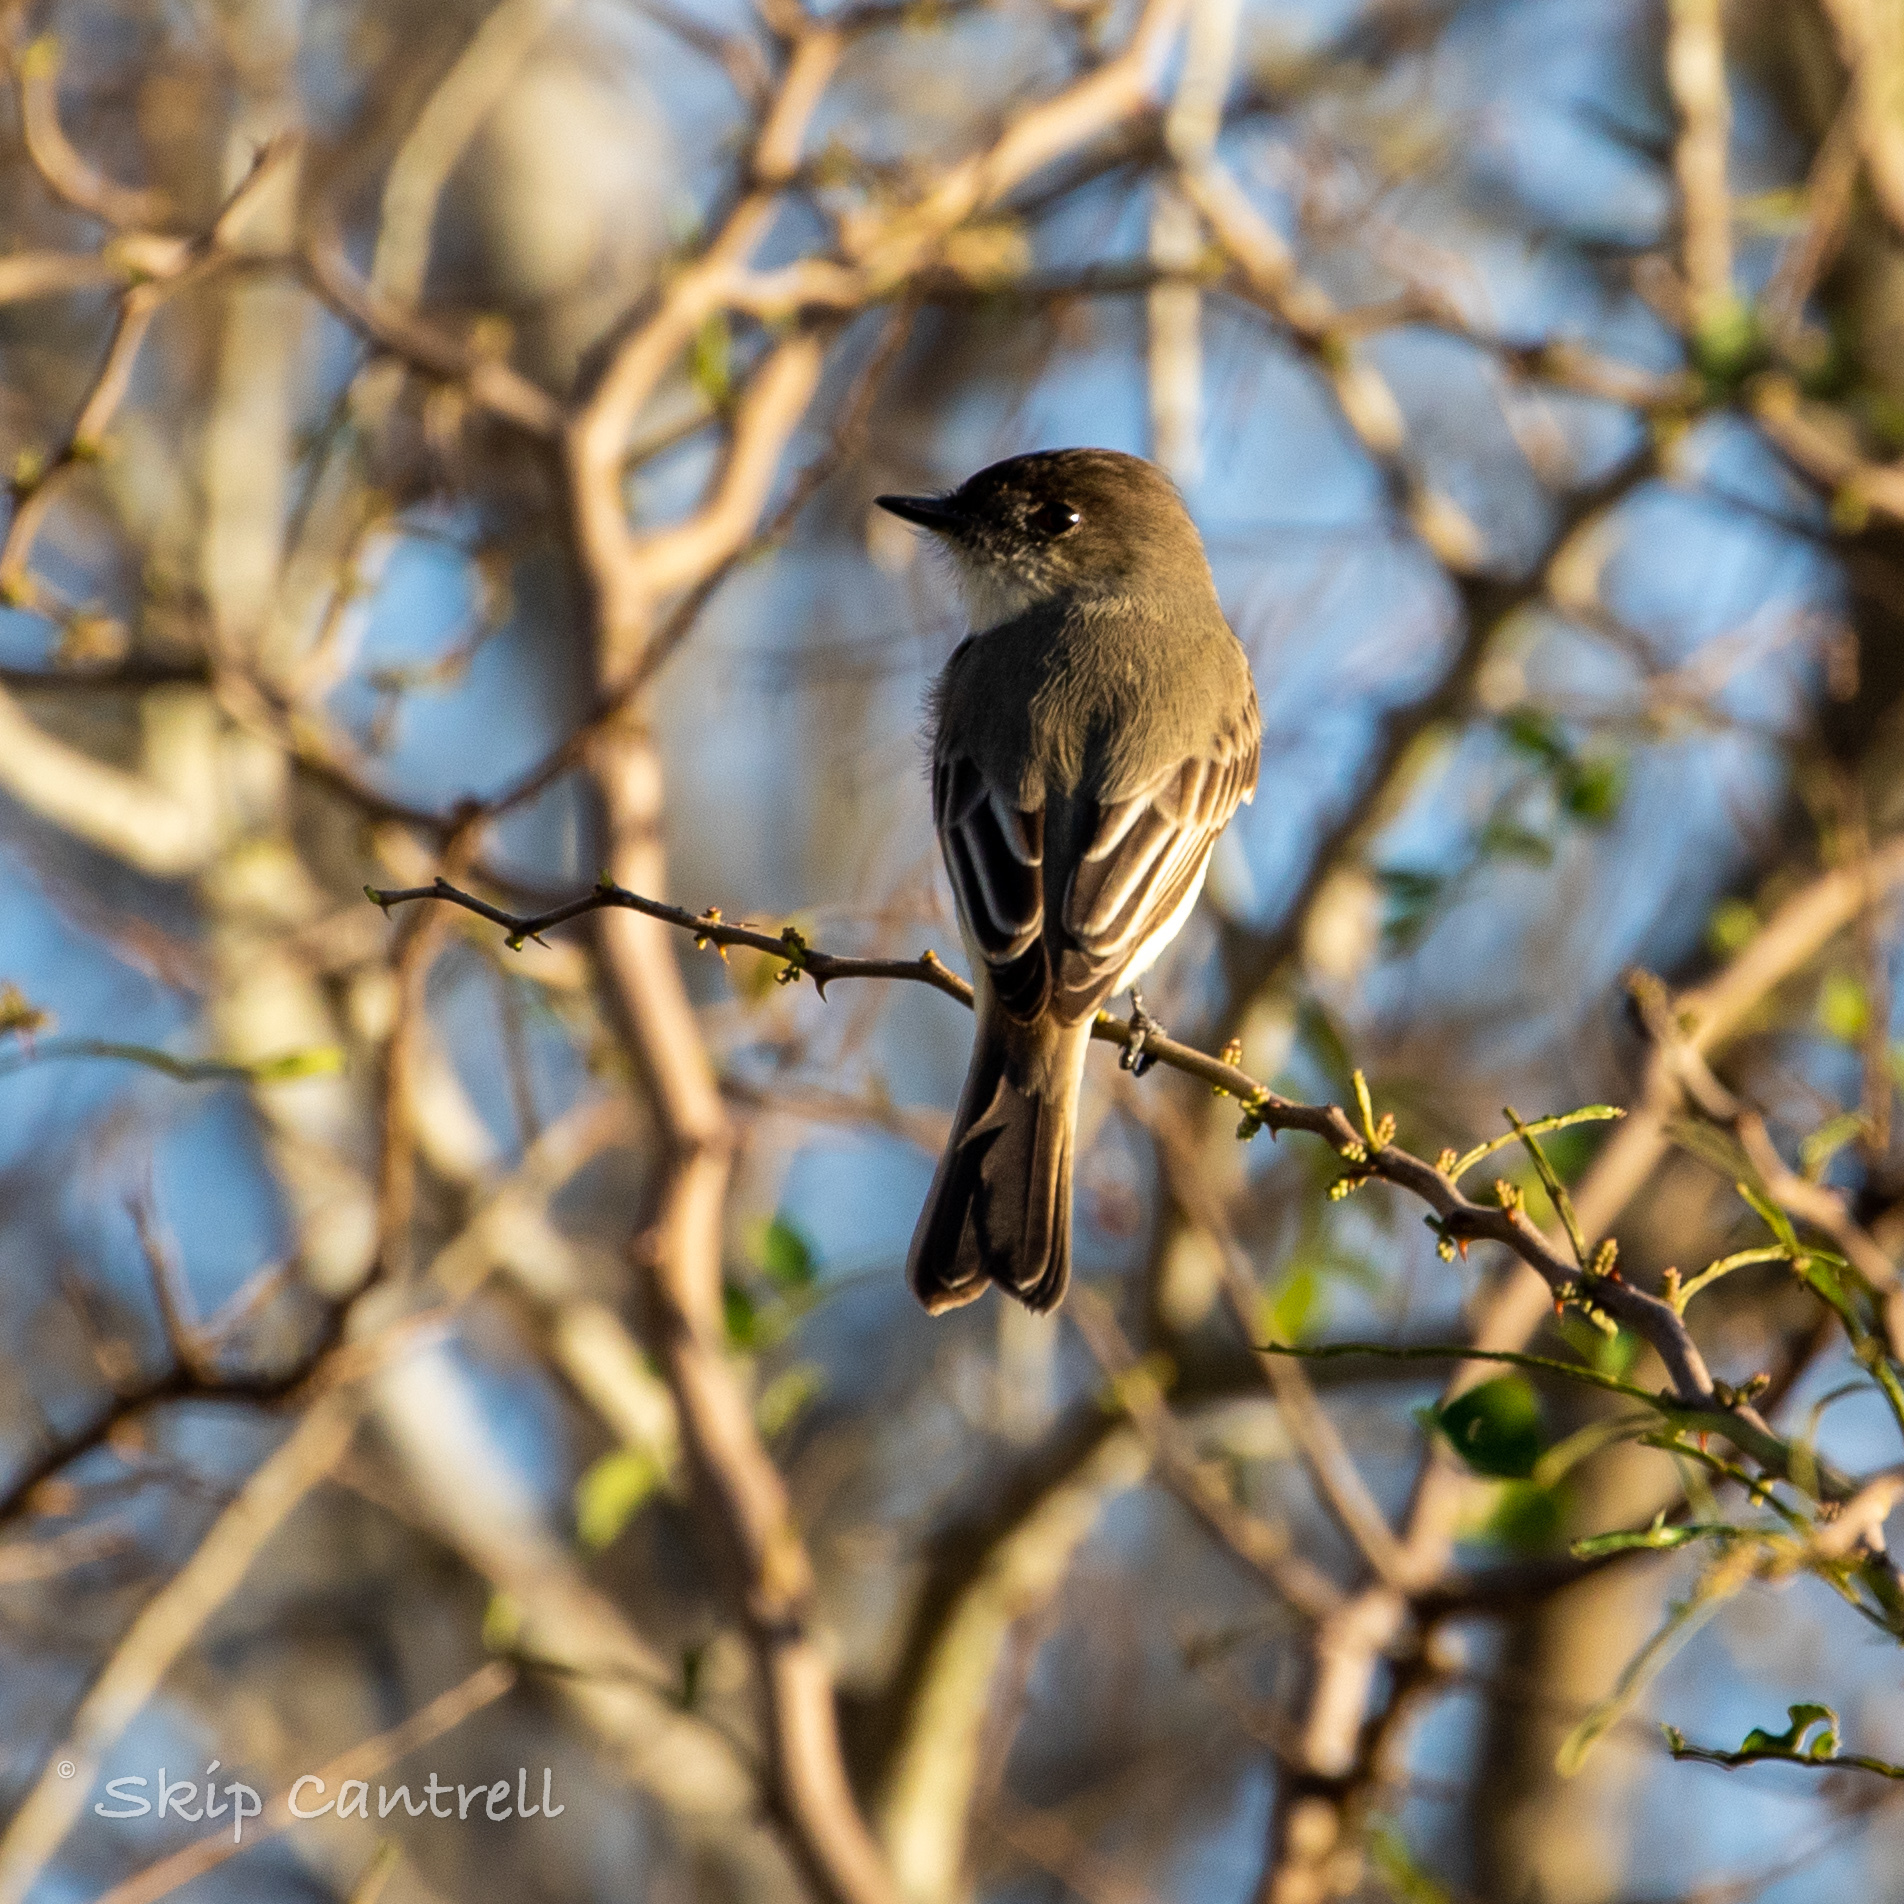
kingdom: Animalia
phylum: Chordata
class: Aves
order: Passeriformes
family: Tyrannidae
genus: Sayornis
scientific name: Sayornis phoebe
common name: Eastern phoebe
